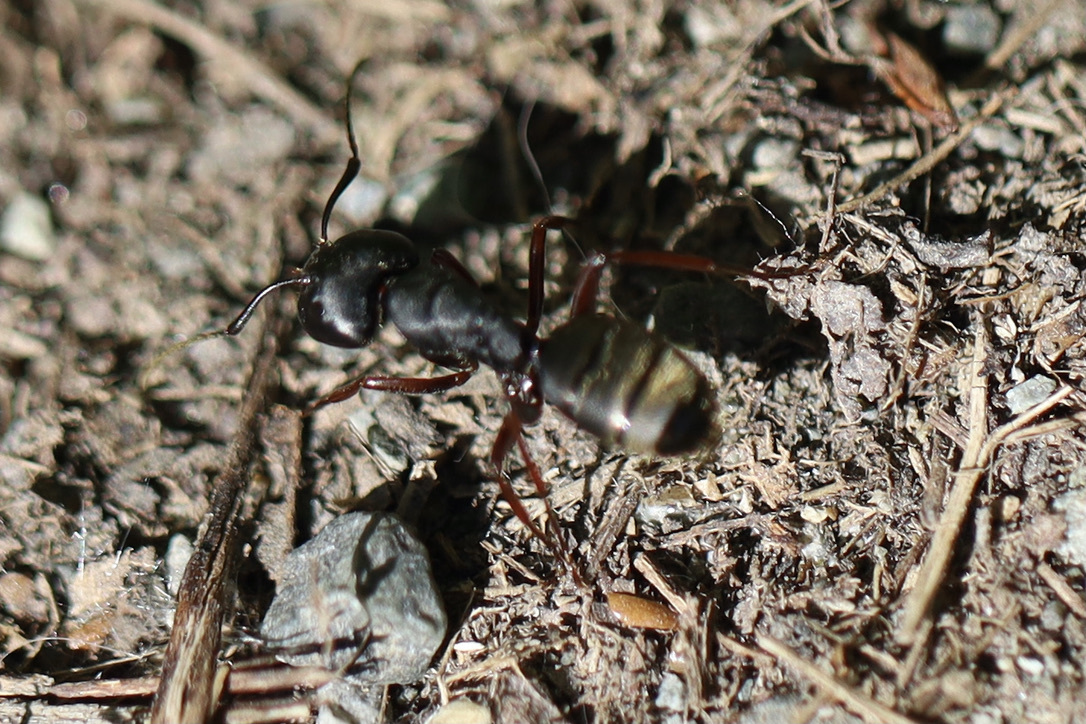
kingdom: Animalia
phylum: Arthropoda
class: Insecta
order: Hymenoptera
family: Formicidae
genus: Camponotus
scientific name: Camponotus modoc
